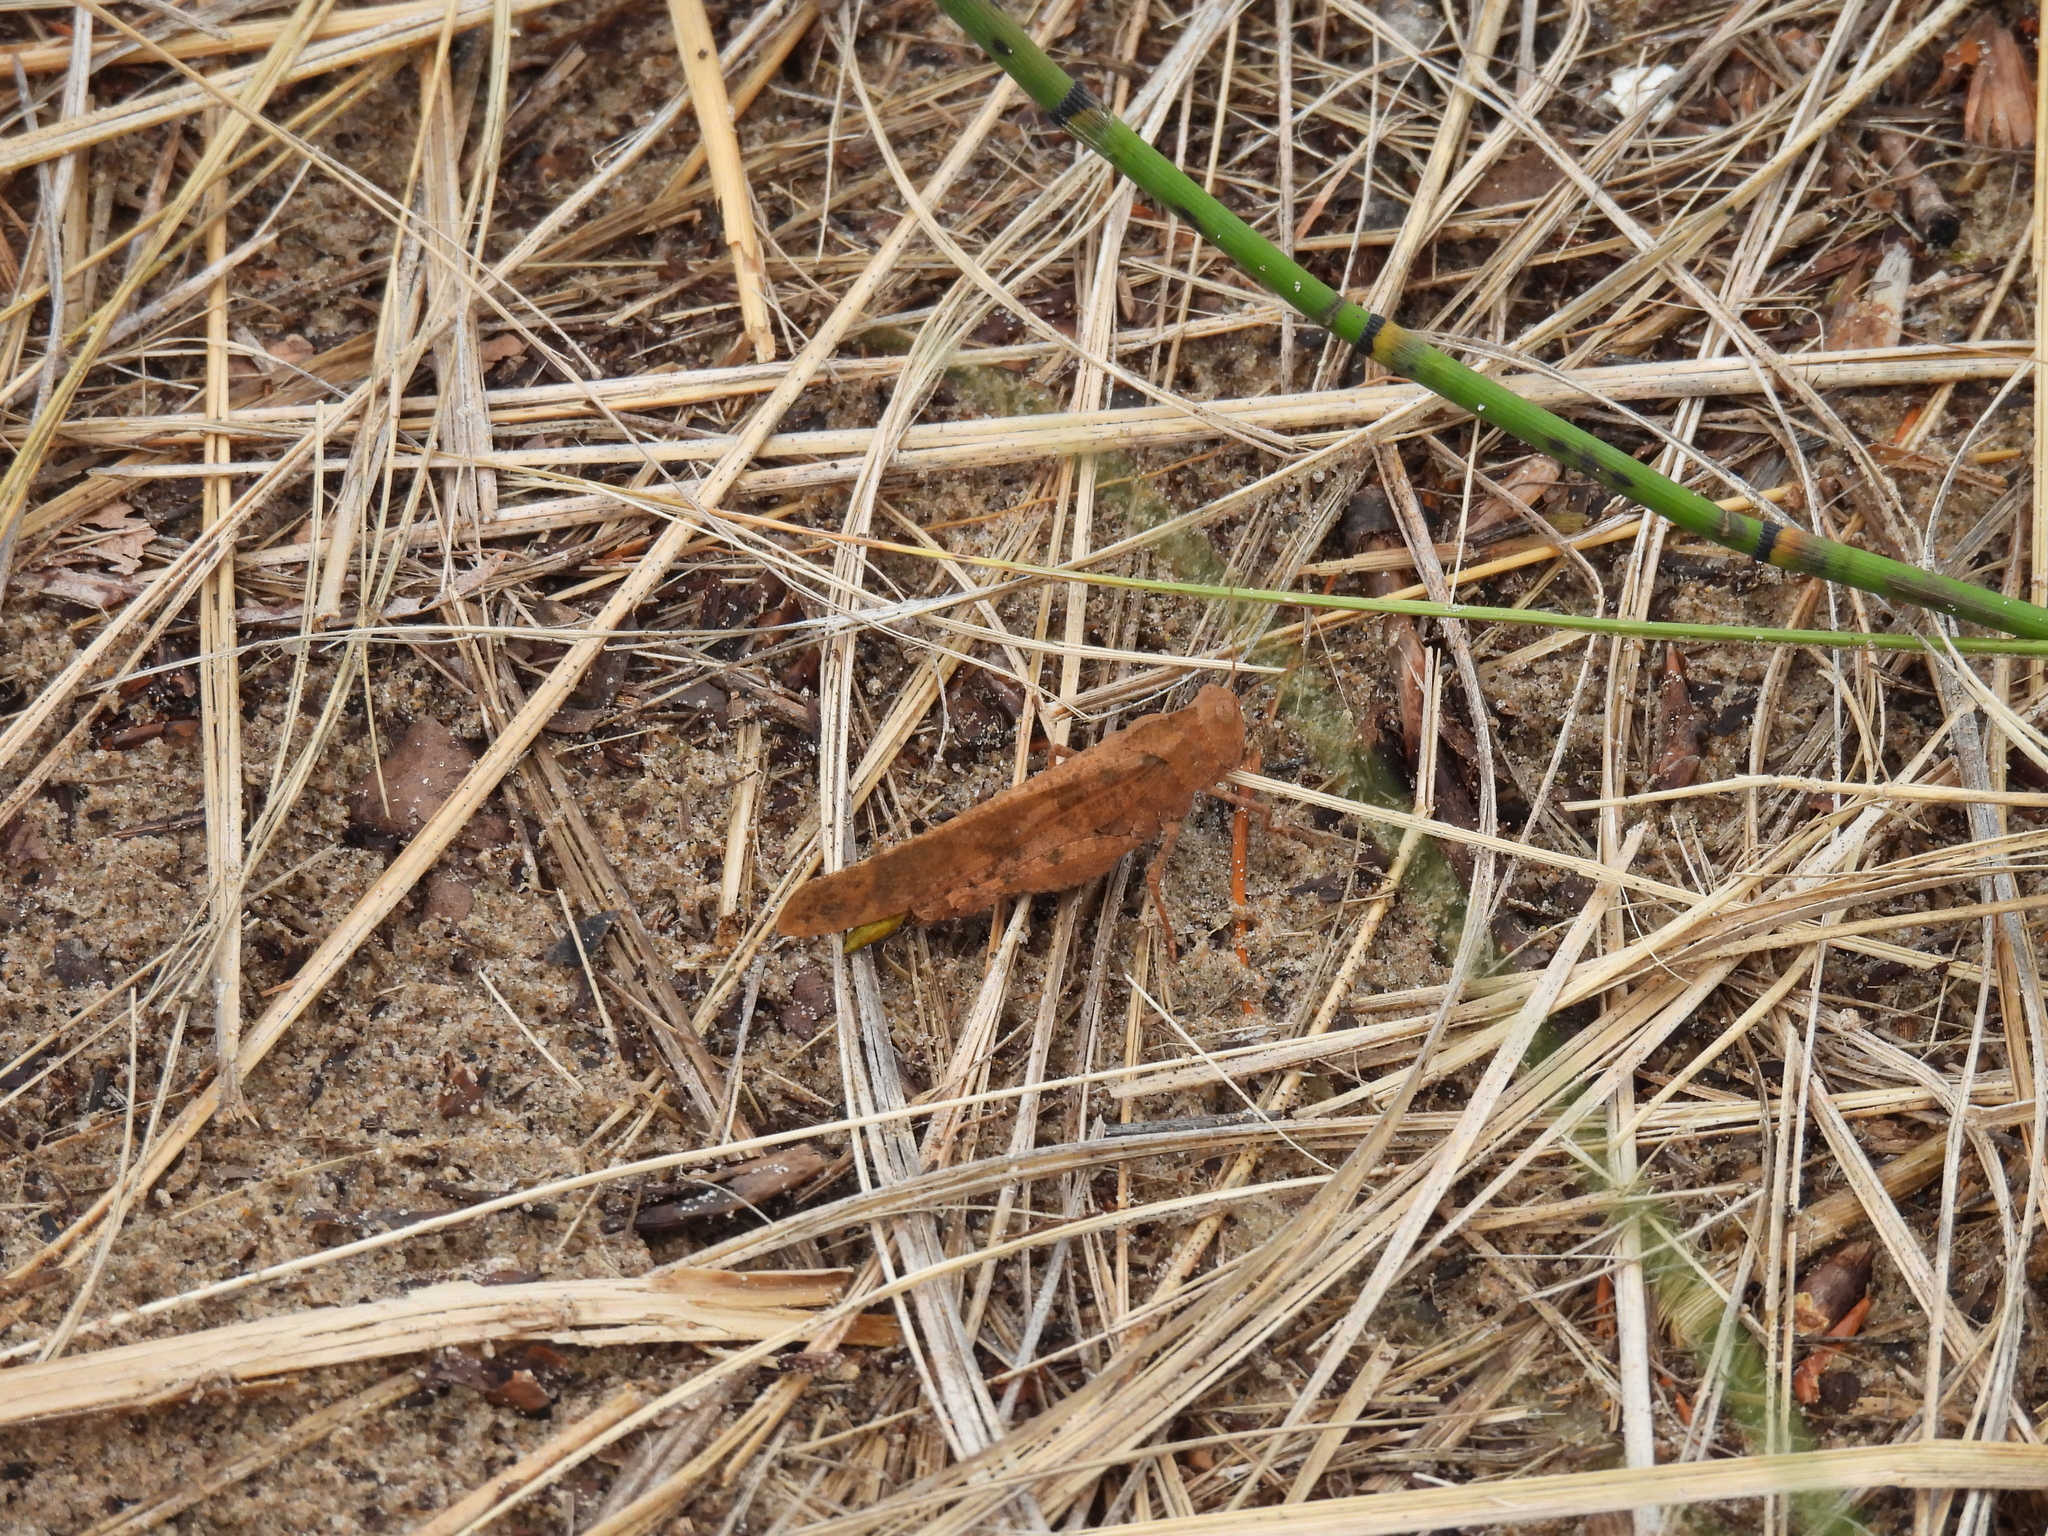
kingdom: Animalia
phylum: Arthropoda
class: Insecta
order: Orthoptera
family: Acrididae
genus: Dissosteira
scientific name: Dissosteira carolina
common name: Carolina grasshopper
